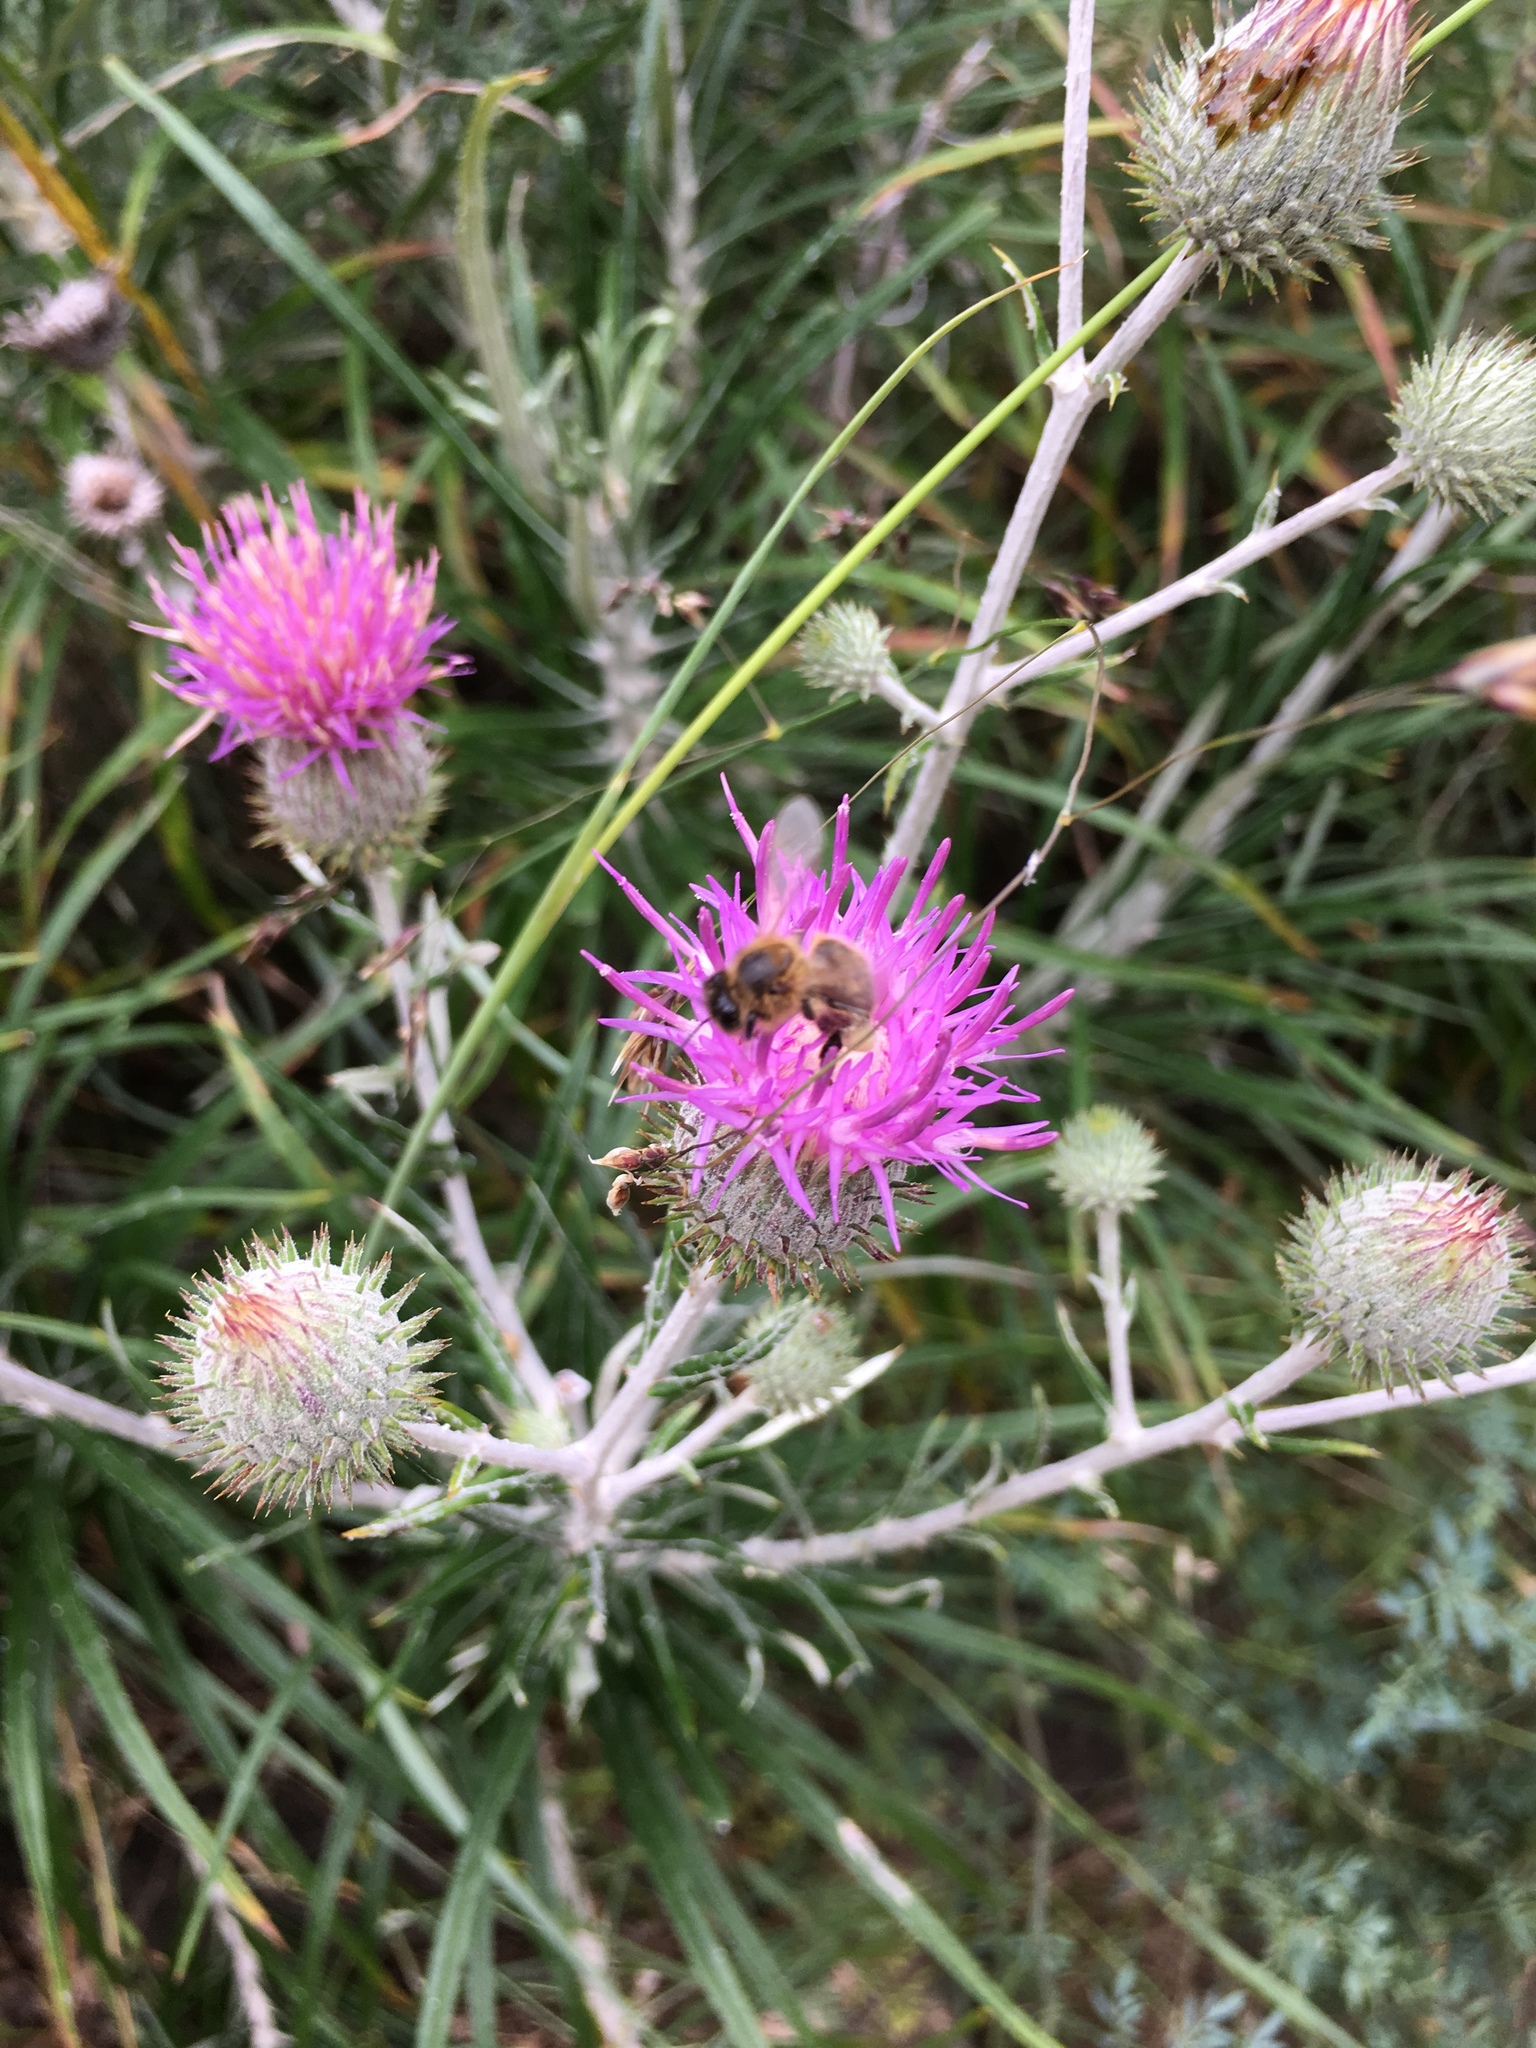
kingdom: Animalia
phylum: Arthropoda
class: Insecta
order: Hymenoptera
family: Apidae
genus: Apis
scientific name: Apis mellifera
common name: Honey bee
